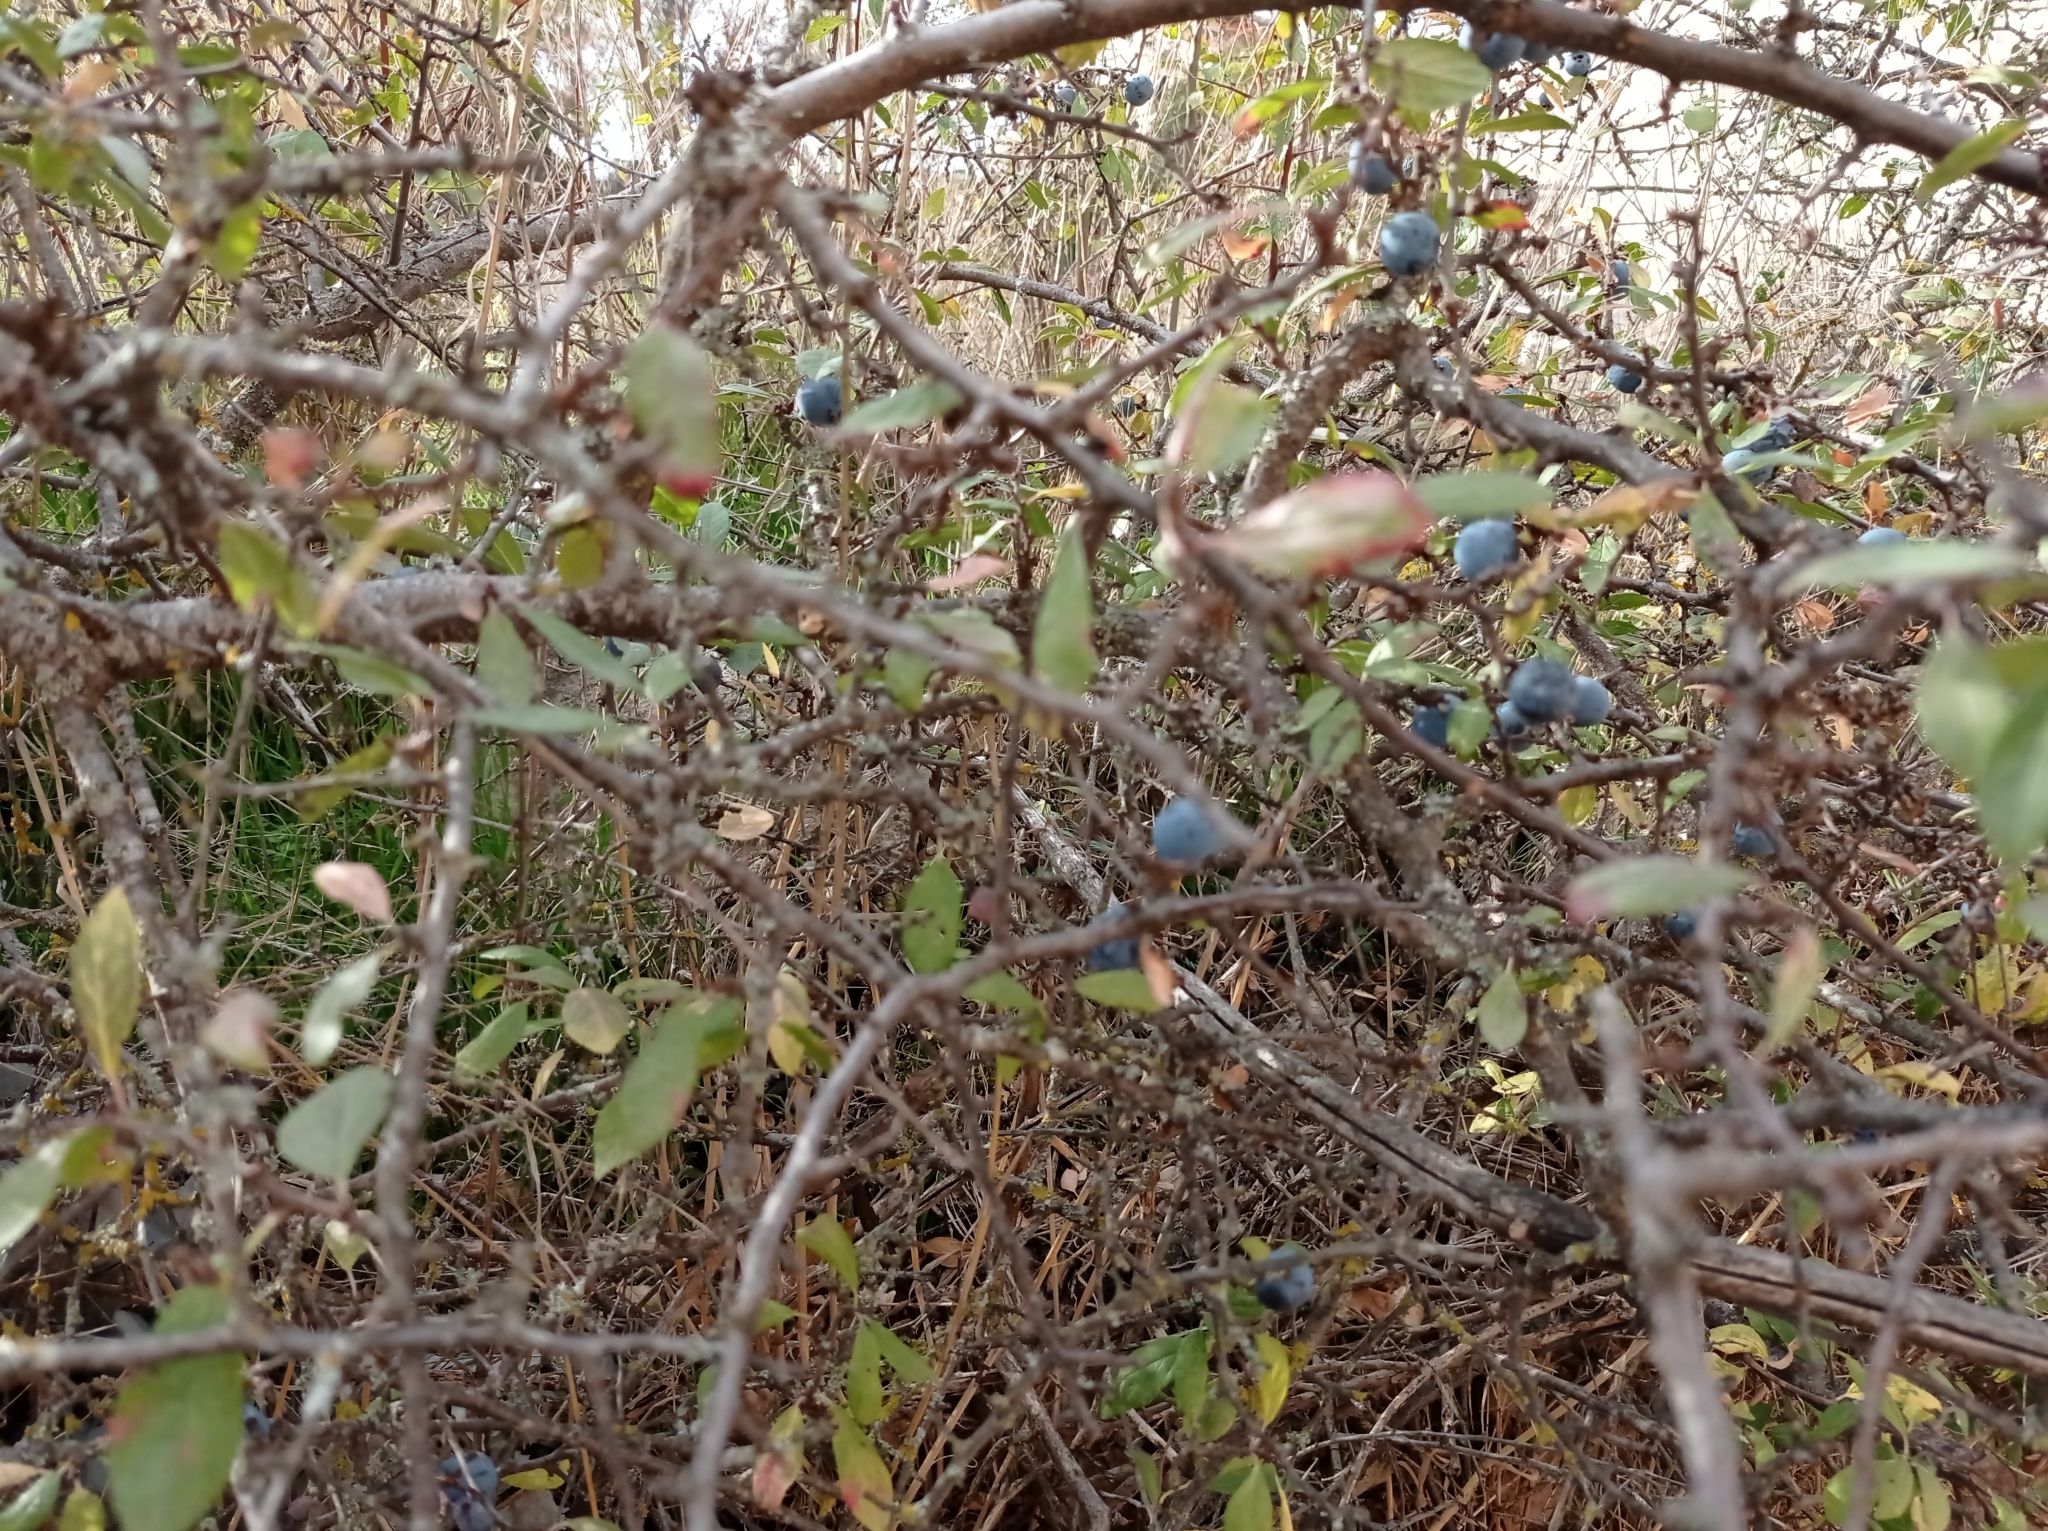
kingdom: Plantae
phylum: Tracheophyta
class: Magnoliopsida
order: Rosales
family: Rosaceae
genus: Prunus
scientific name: Prunus spinosa
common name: Blackthorn
